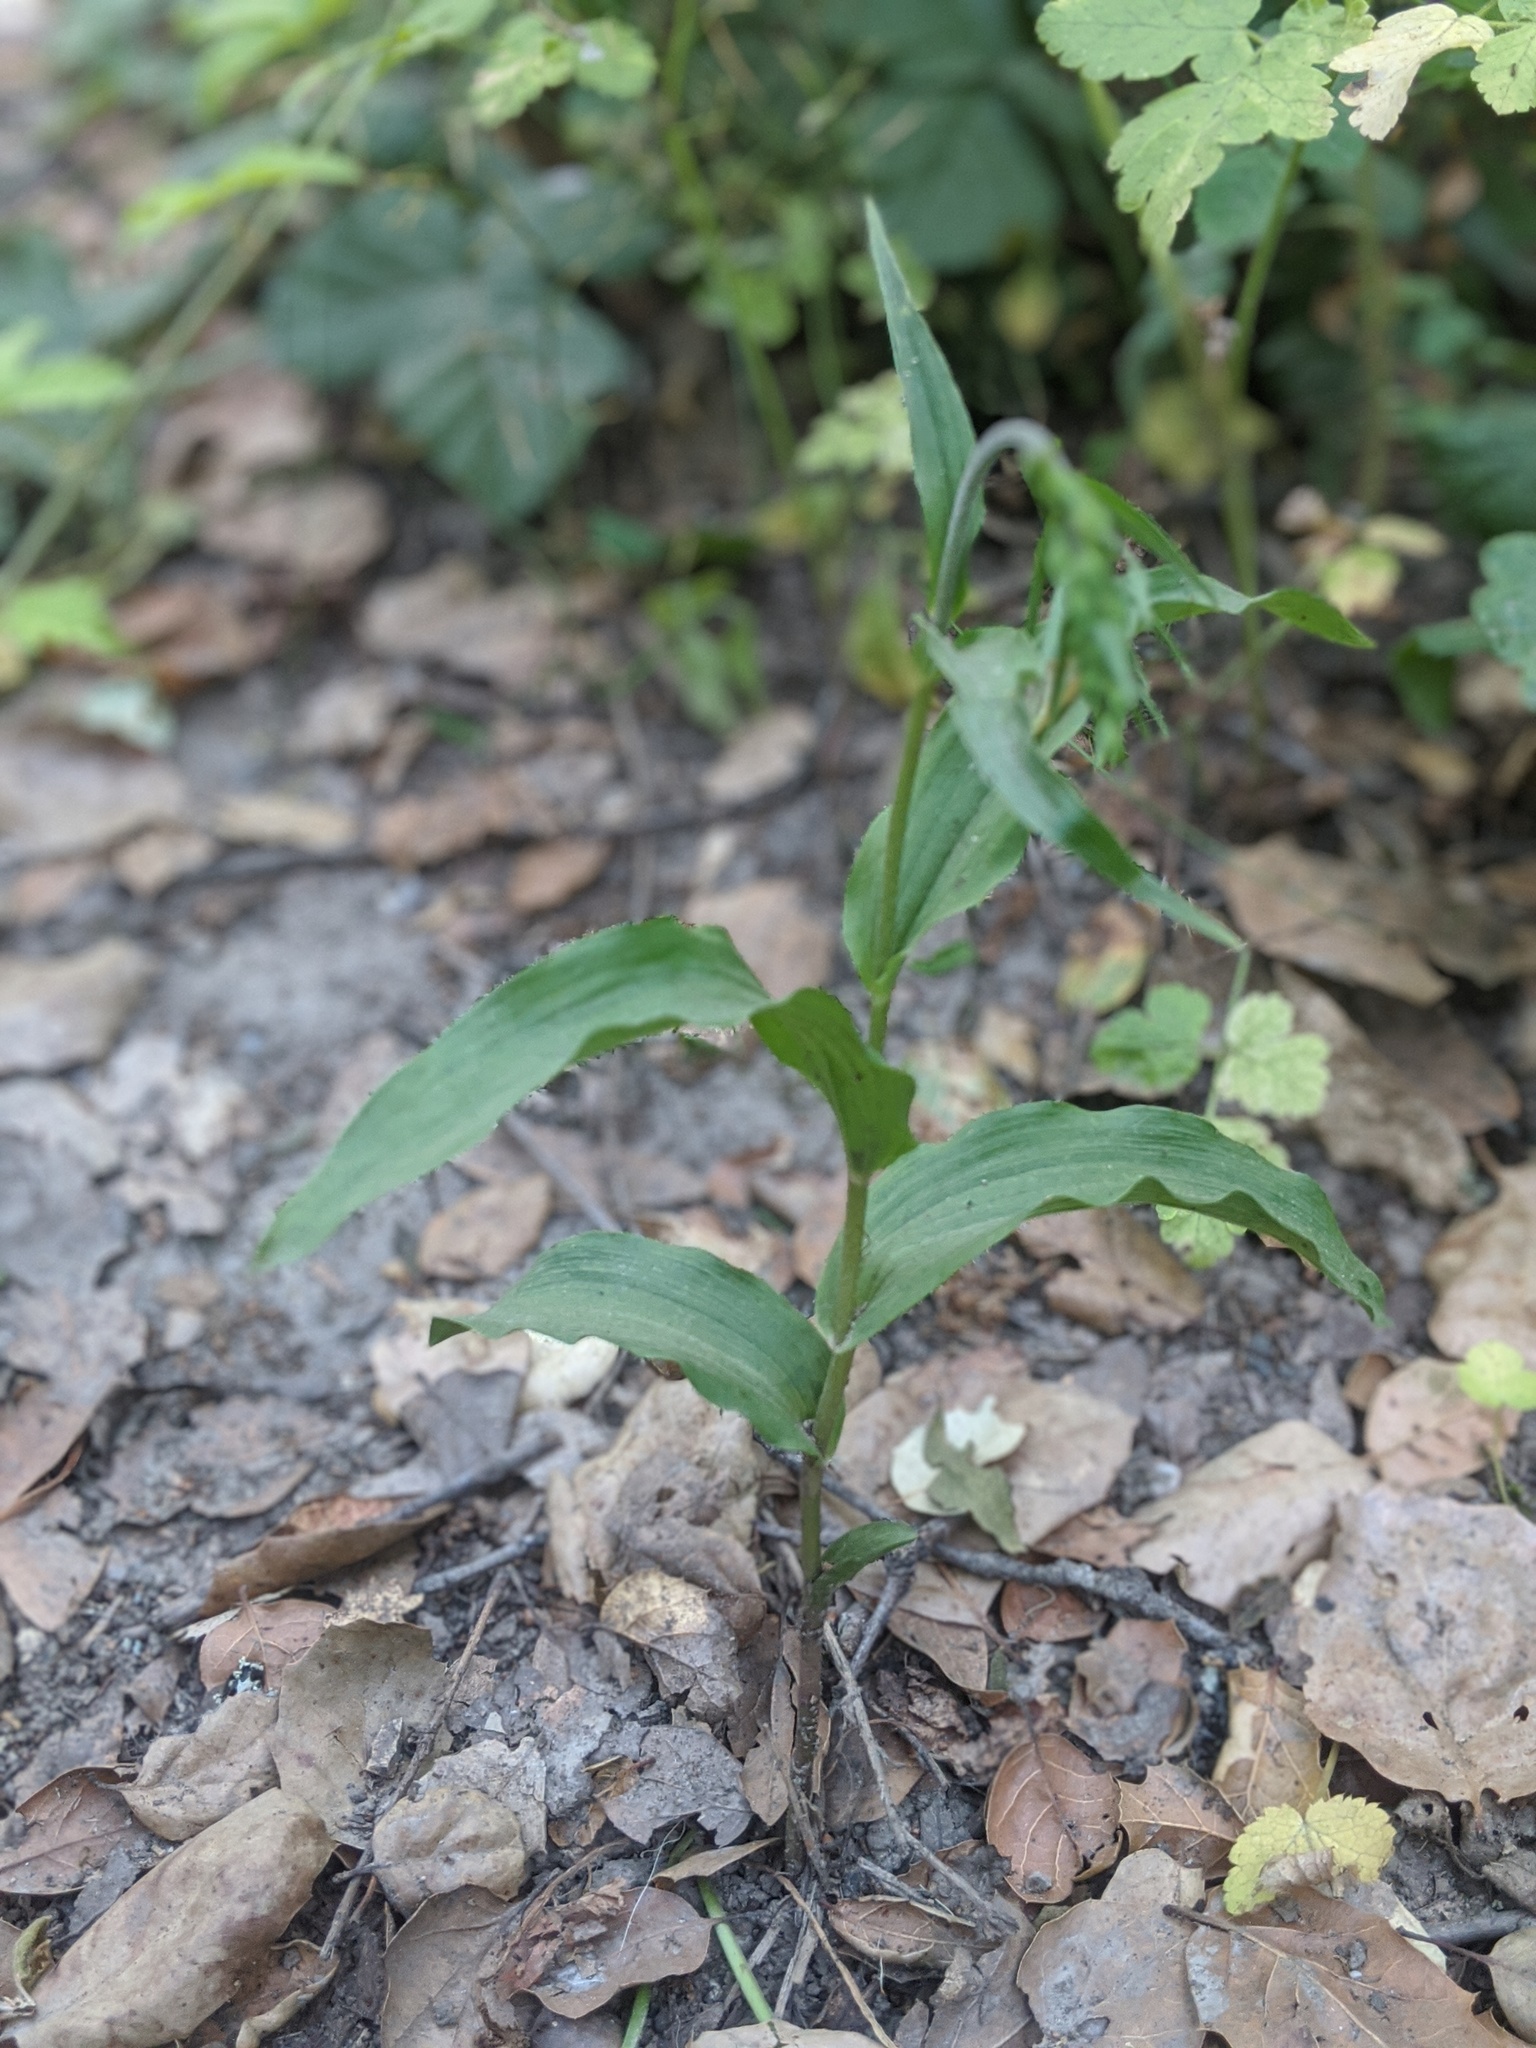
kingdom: Plantae
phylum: Tracheophyta
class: Liliopsida
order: Asparagales
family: Orchidaceae
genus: Epipactis
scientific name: Epipactis helleborine
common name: Broad-leaved helleborine
